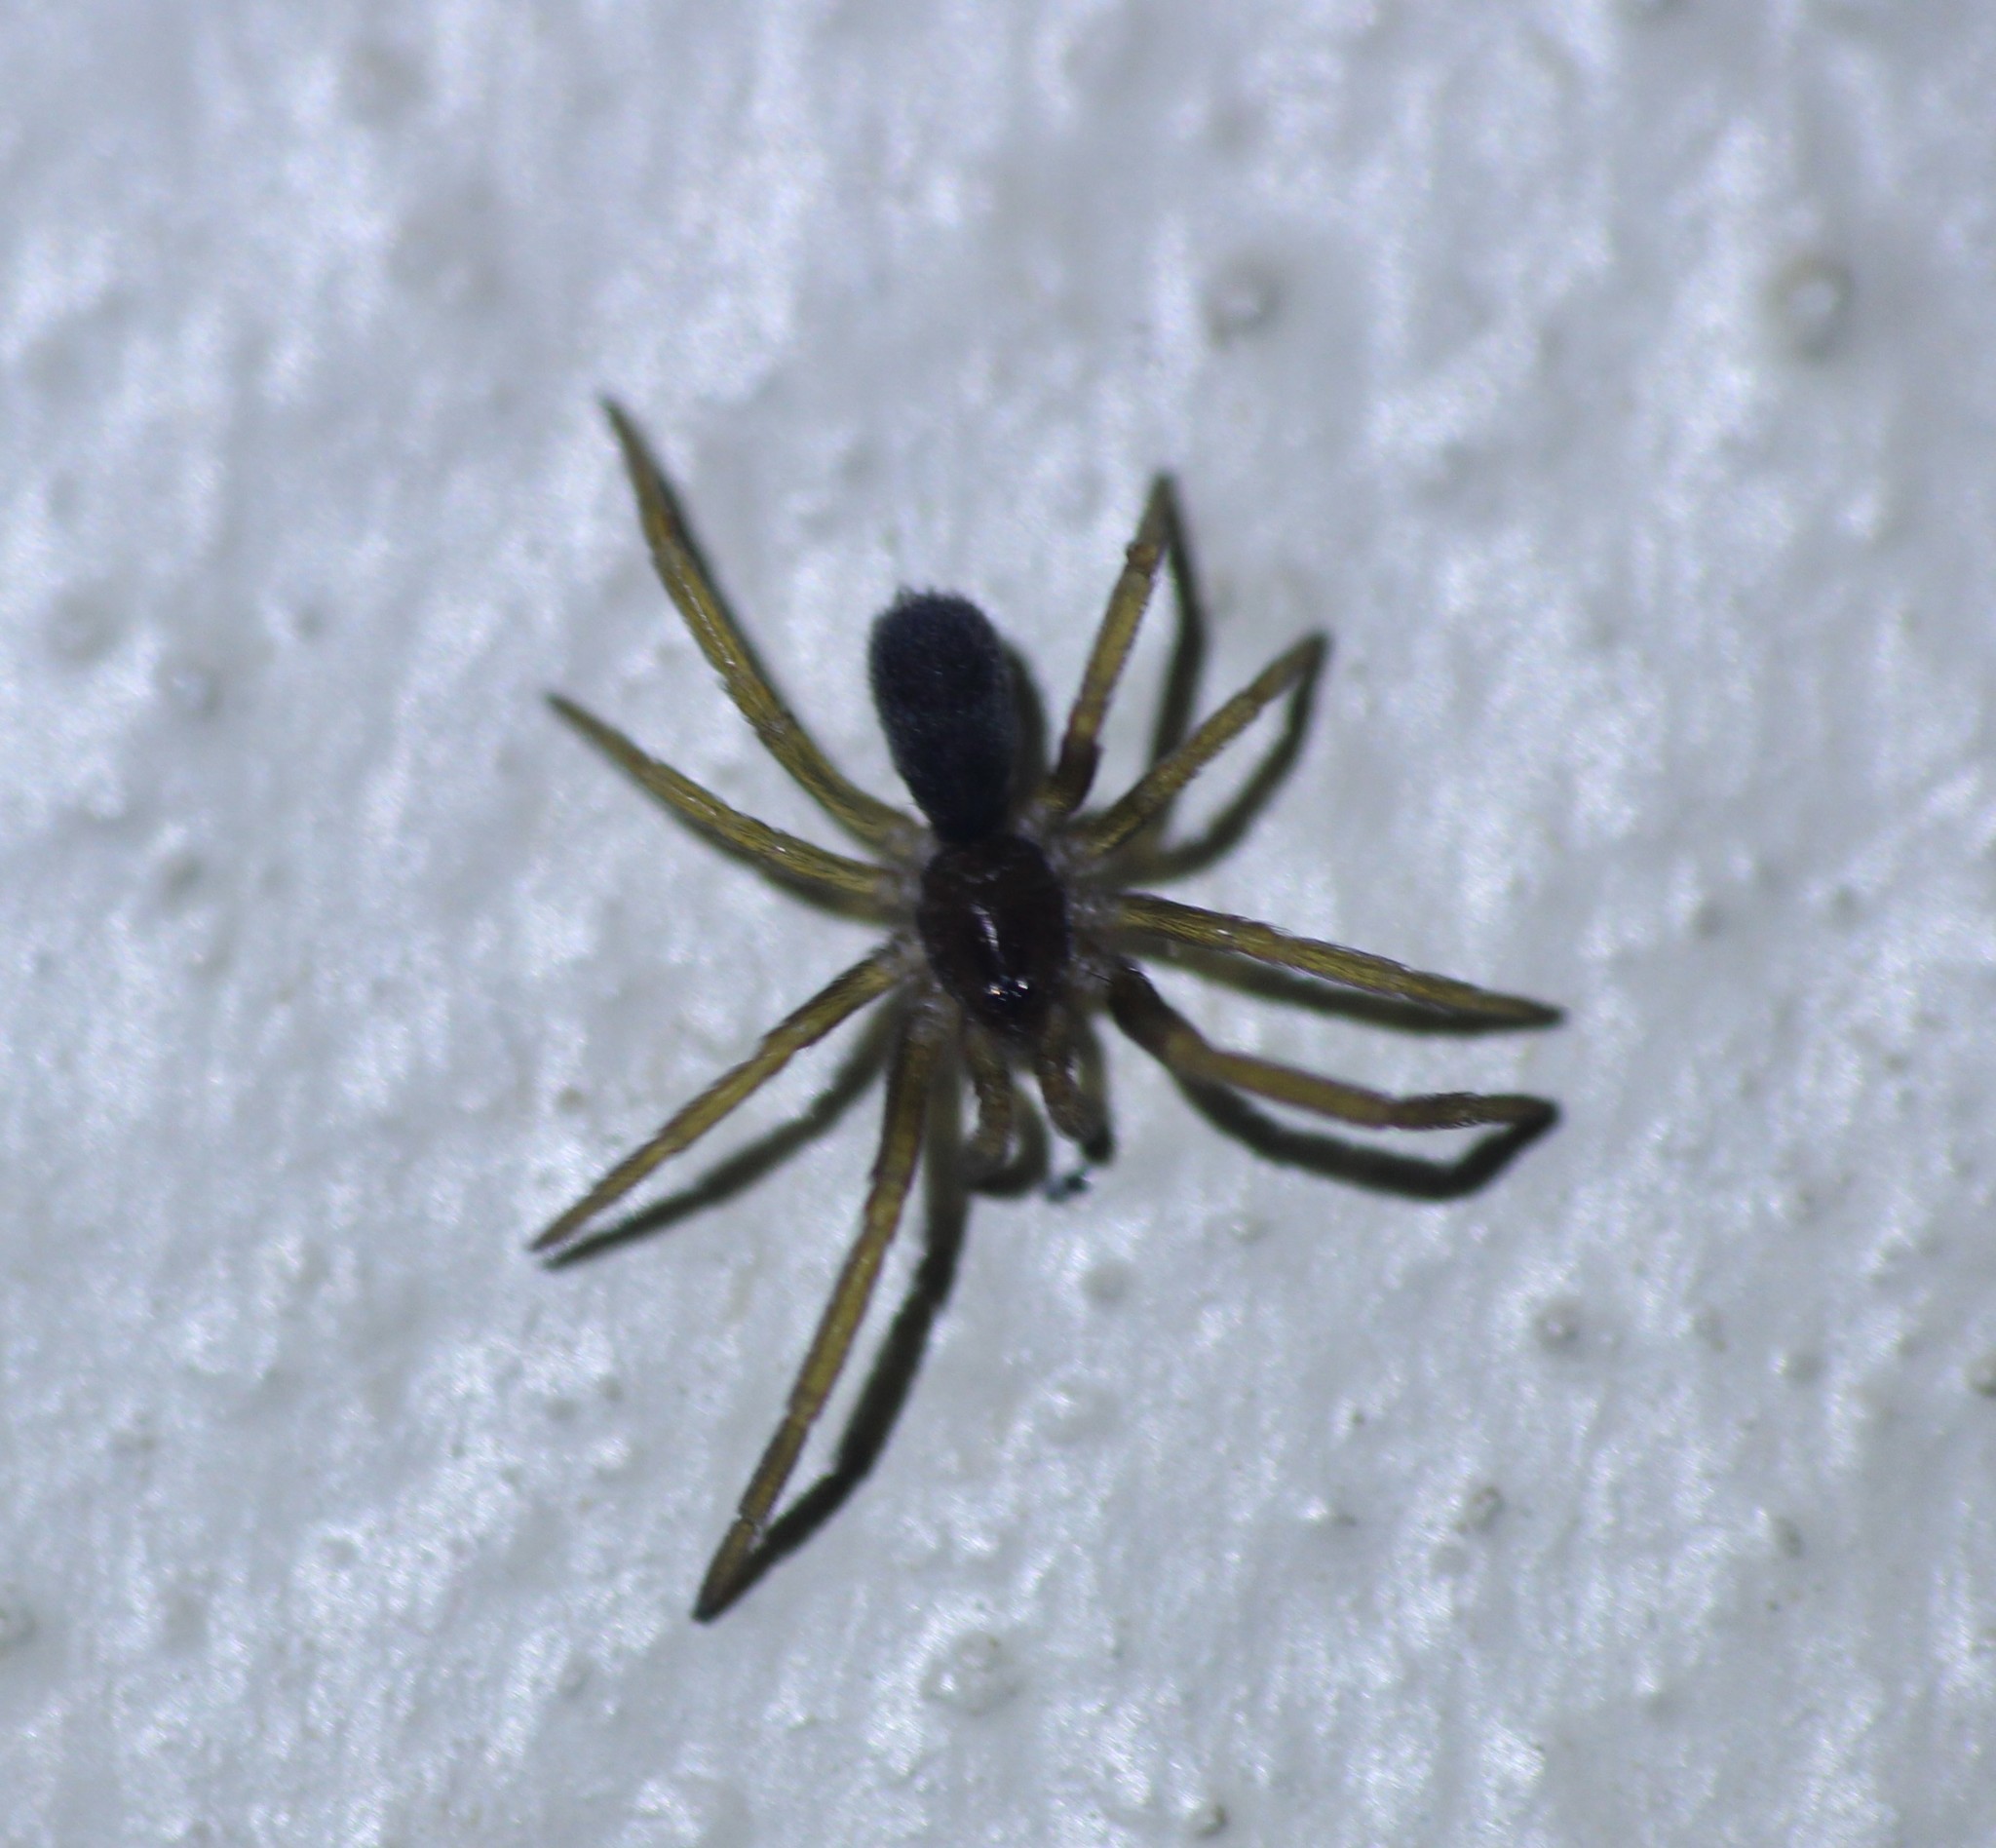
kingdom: Animalia
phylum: Arthropoda
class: Arachnida
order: Araneae
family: Filistatidae
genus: Kukulcania
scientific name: Kukulcania hibernalis
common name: Crevice weaver
